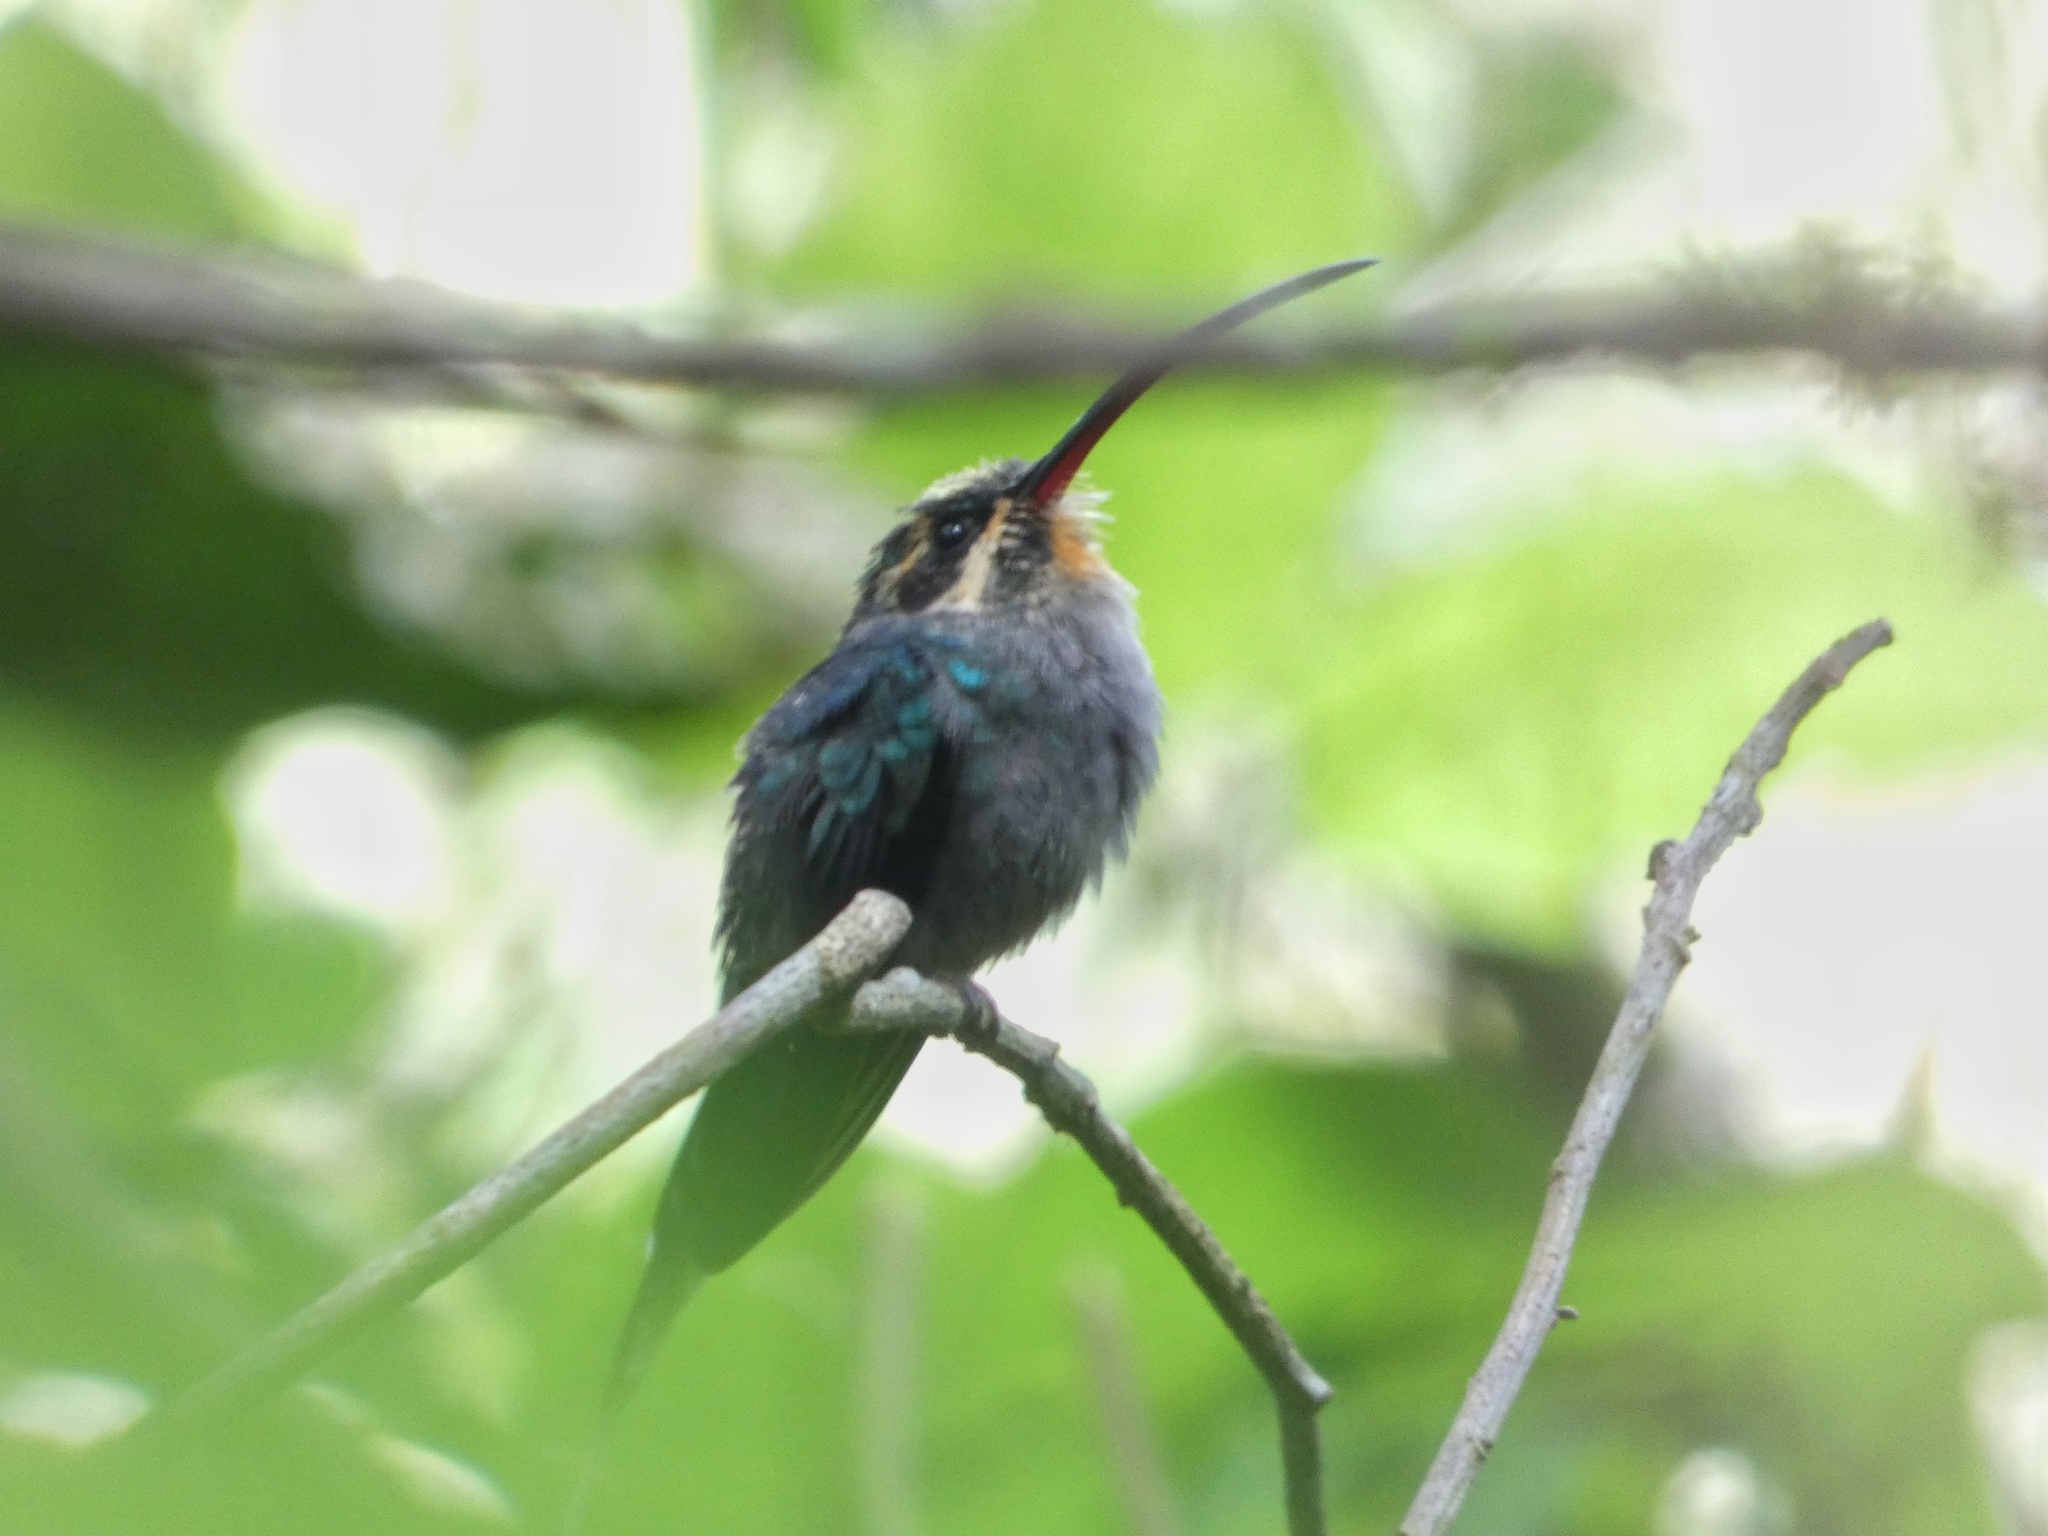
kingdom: Animalia
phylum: Chordata
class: Aves
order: Apodiformes
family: Trochilidae
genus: Phaethornis
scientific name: Phaethornis guy
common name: Green hermit
